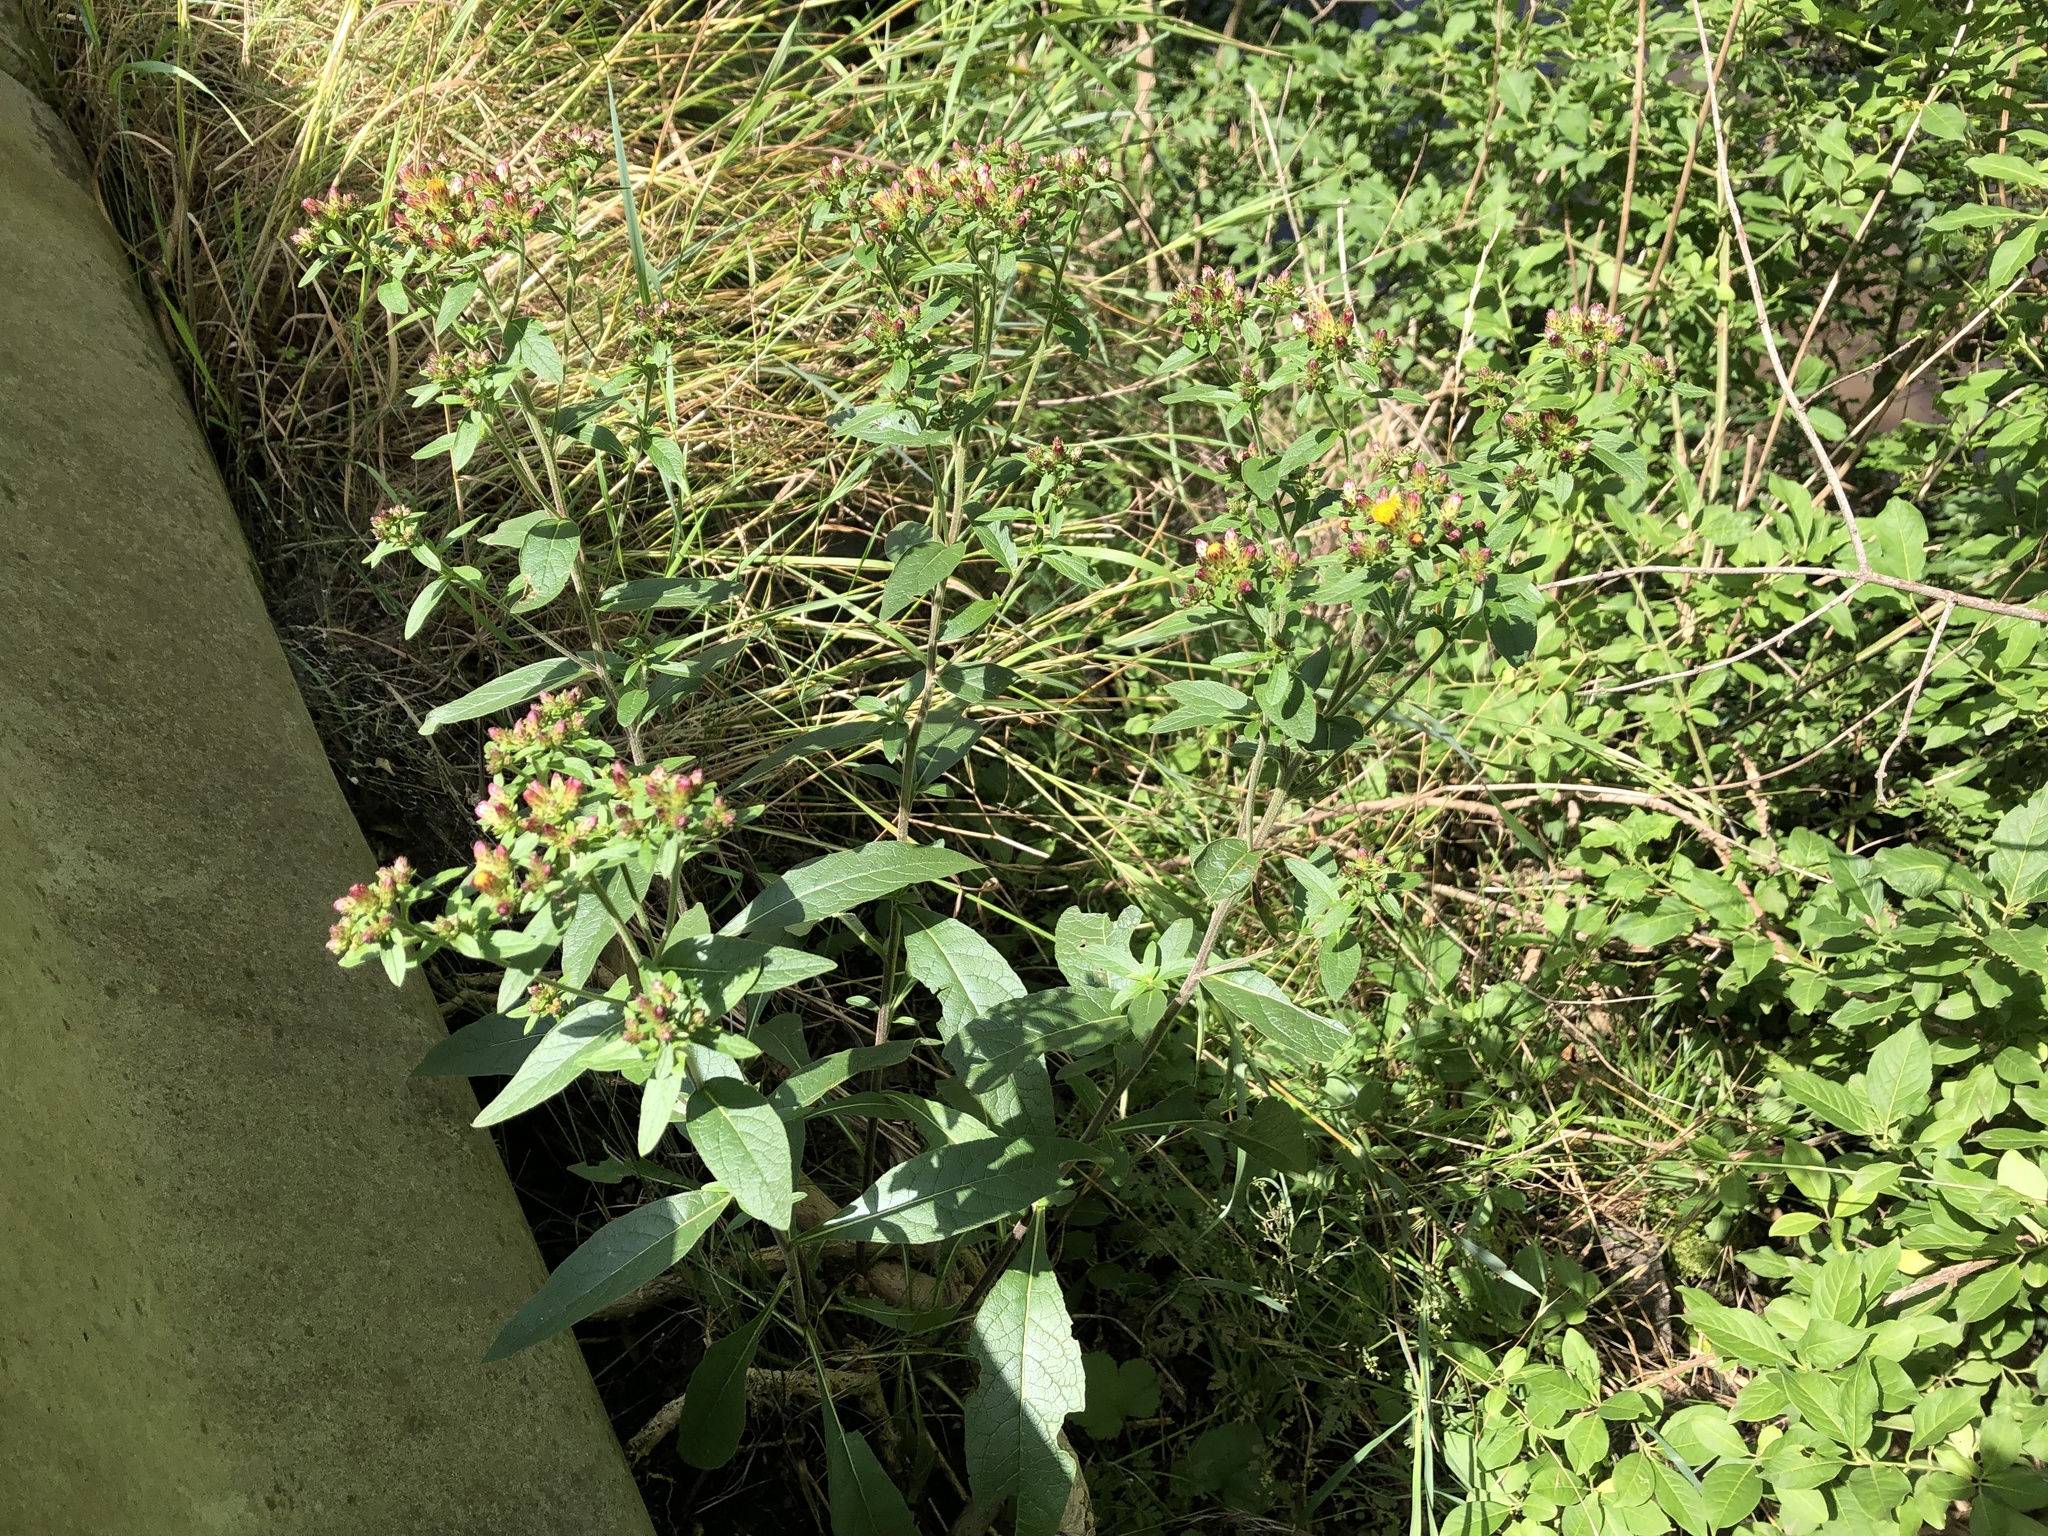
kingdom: Plantae
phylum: Tracheophyta
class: Magnoliopsida
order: Asterales
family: Asteraceae
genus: Pentanema
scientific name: Pentanema squarrosum
